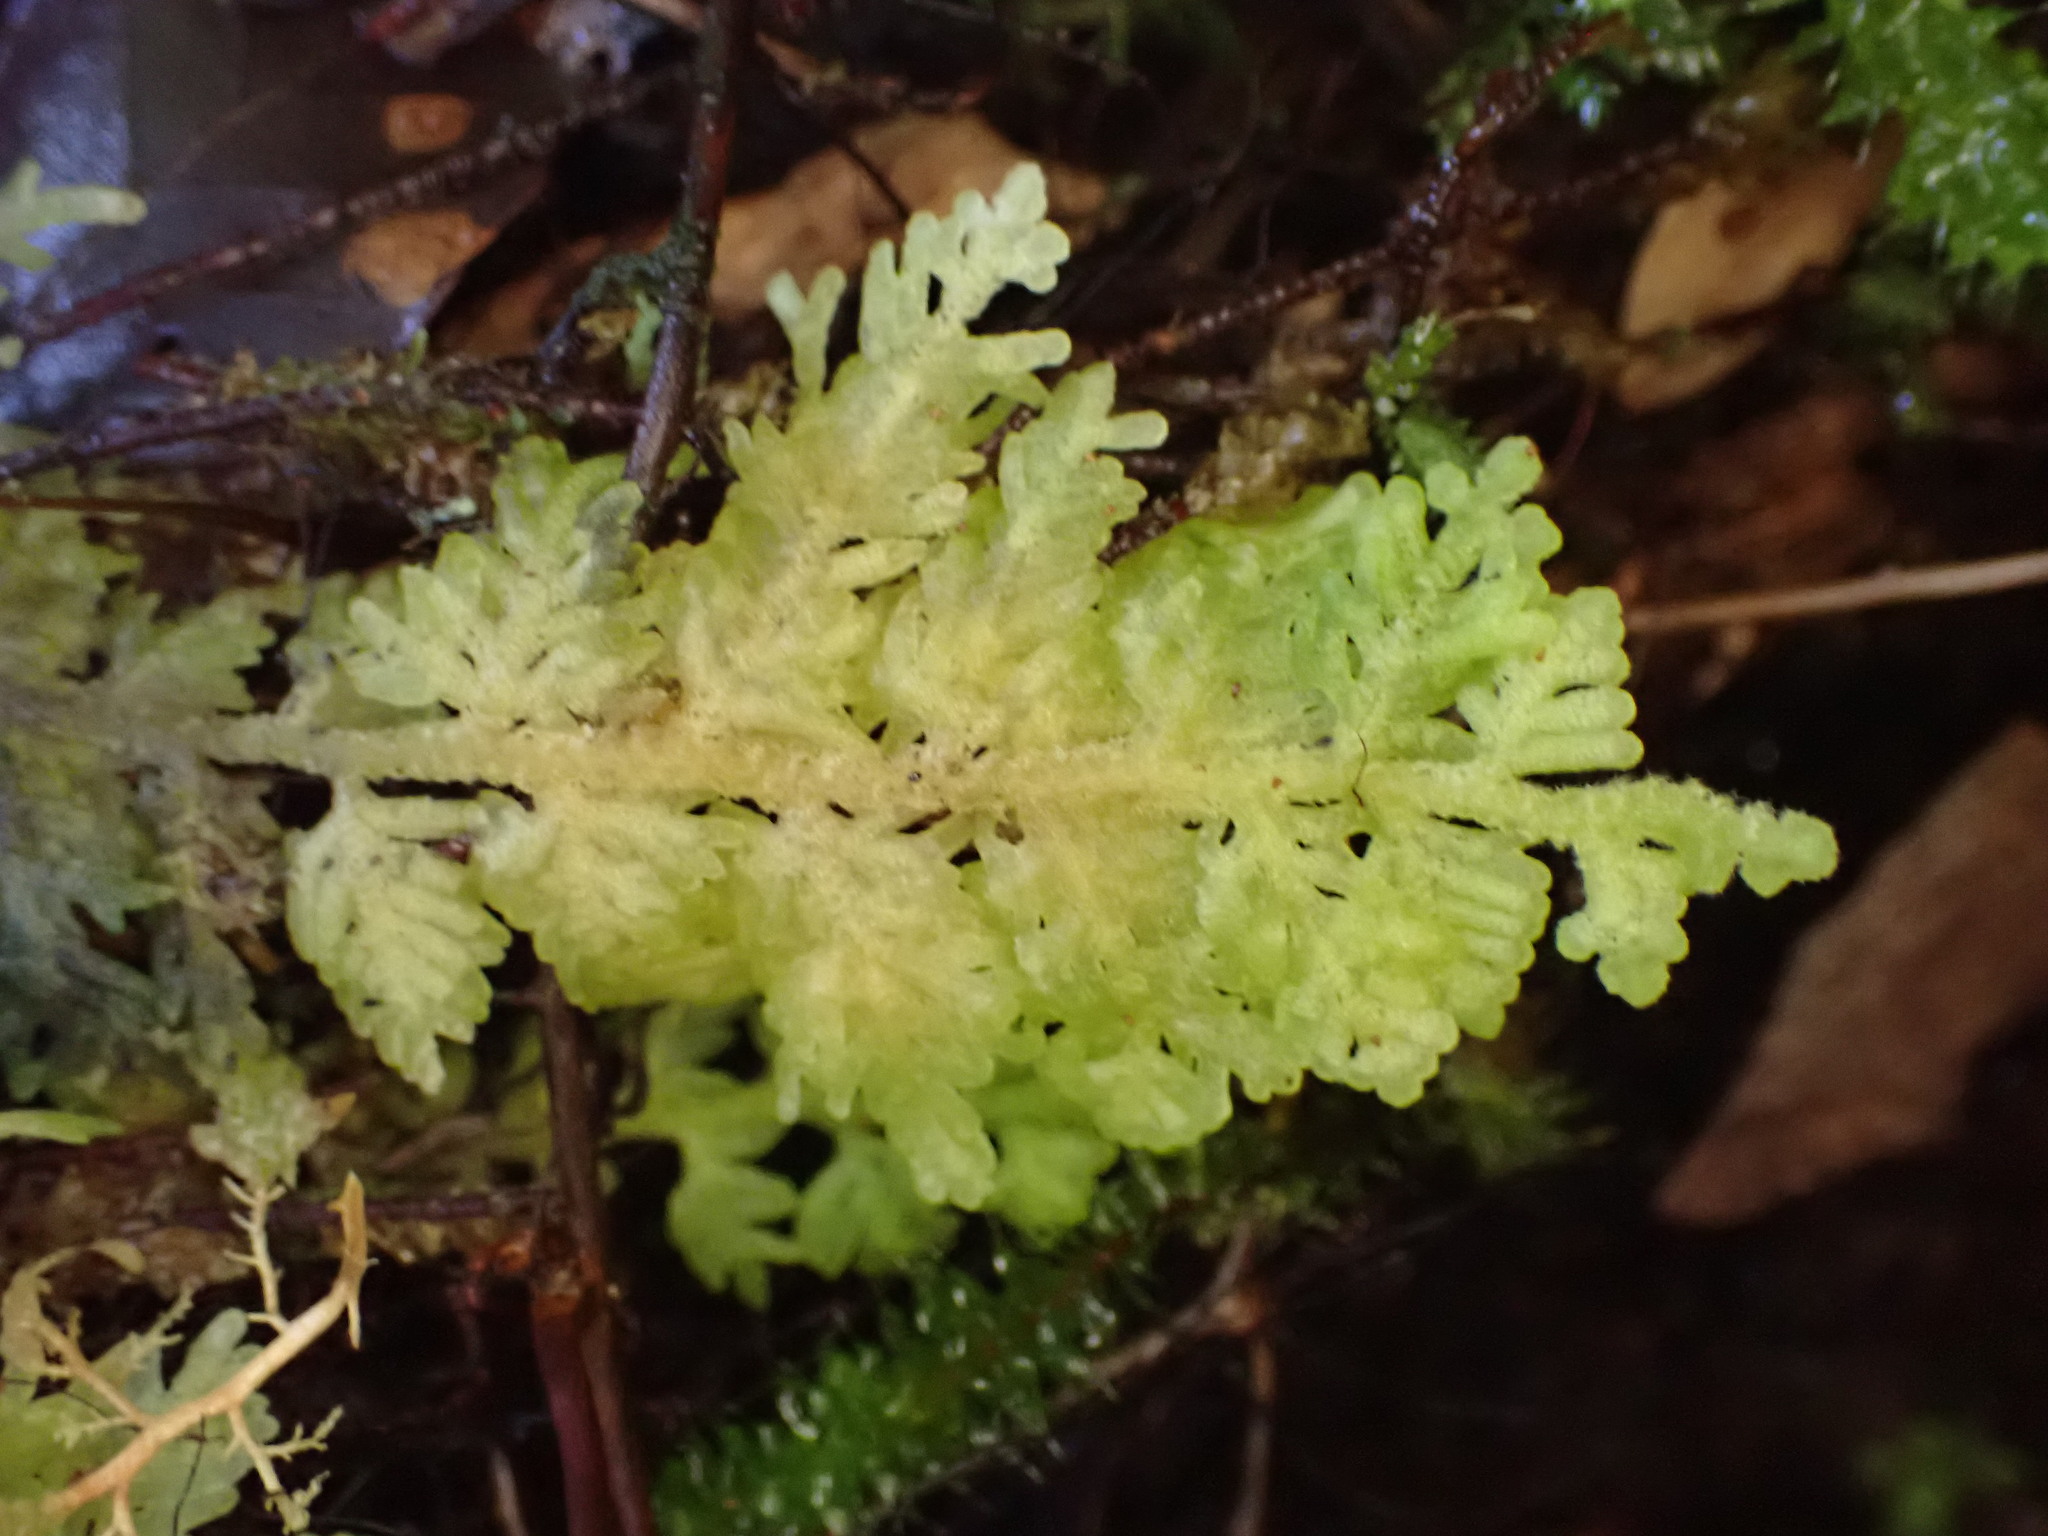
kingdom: Plantae
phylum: Marchantiophyta
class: Jungermanniopsida
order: Jungermanniales
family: Trichocoleaceae
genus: Trichocolea
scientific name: Trichocolea mollissima
